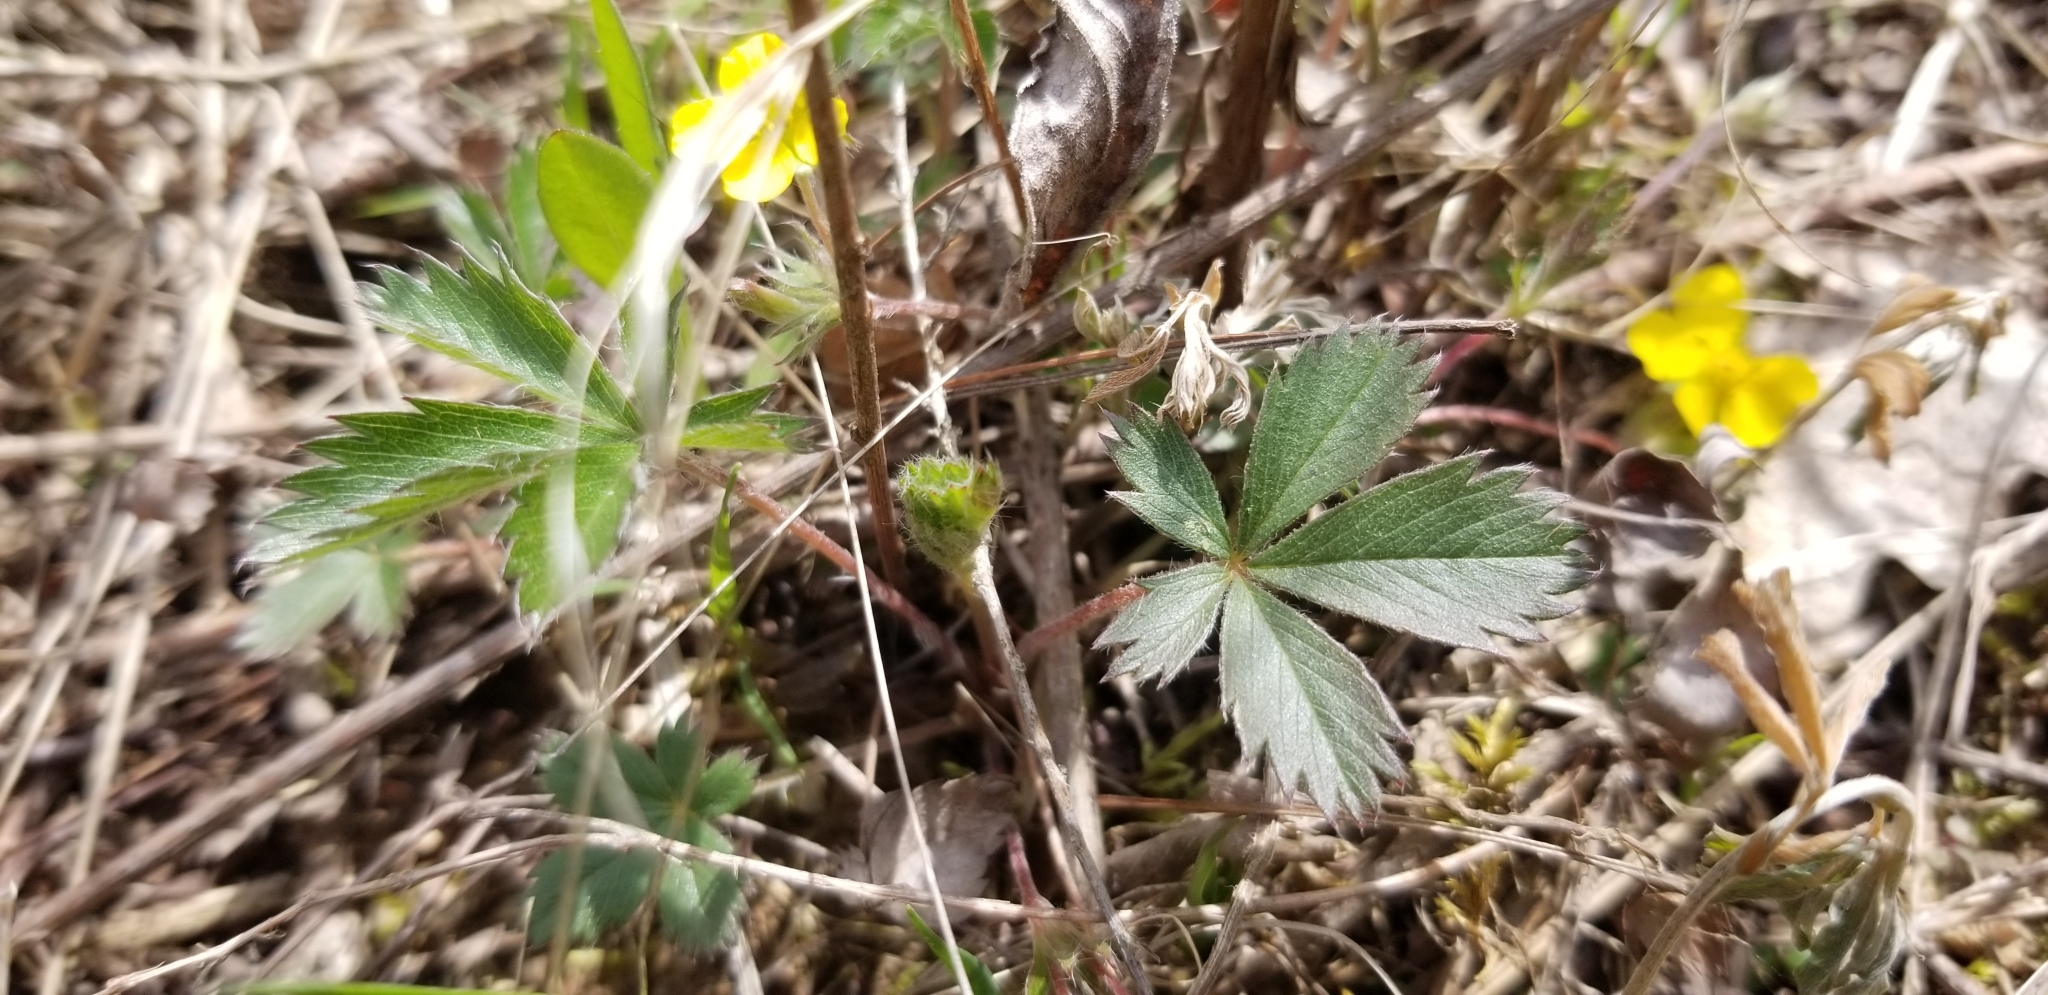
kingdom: Plantae
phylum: Tracheophyta
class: Magnoliopsida
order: Rosales
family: Rosaceae
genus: Potentilla
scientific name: Potentilla canadensis
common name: Canada cinquefoil
